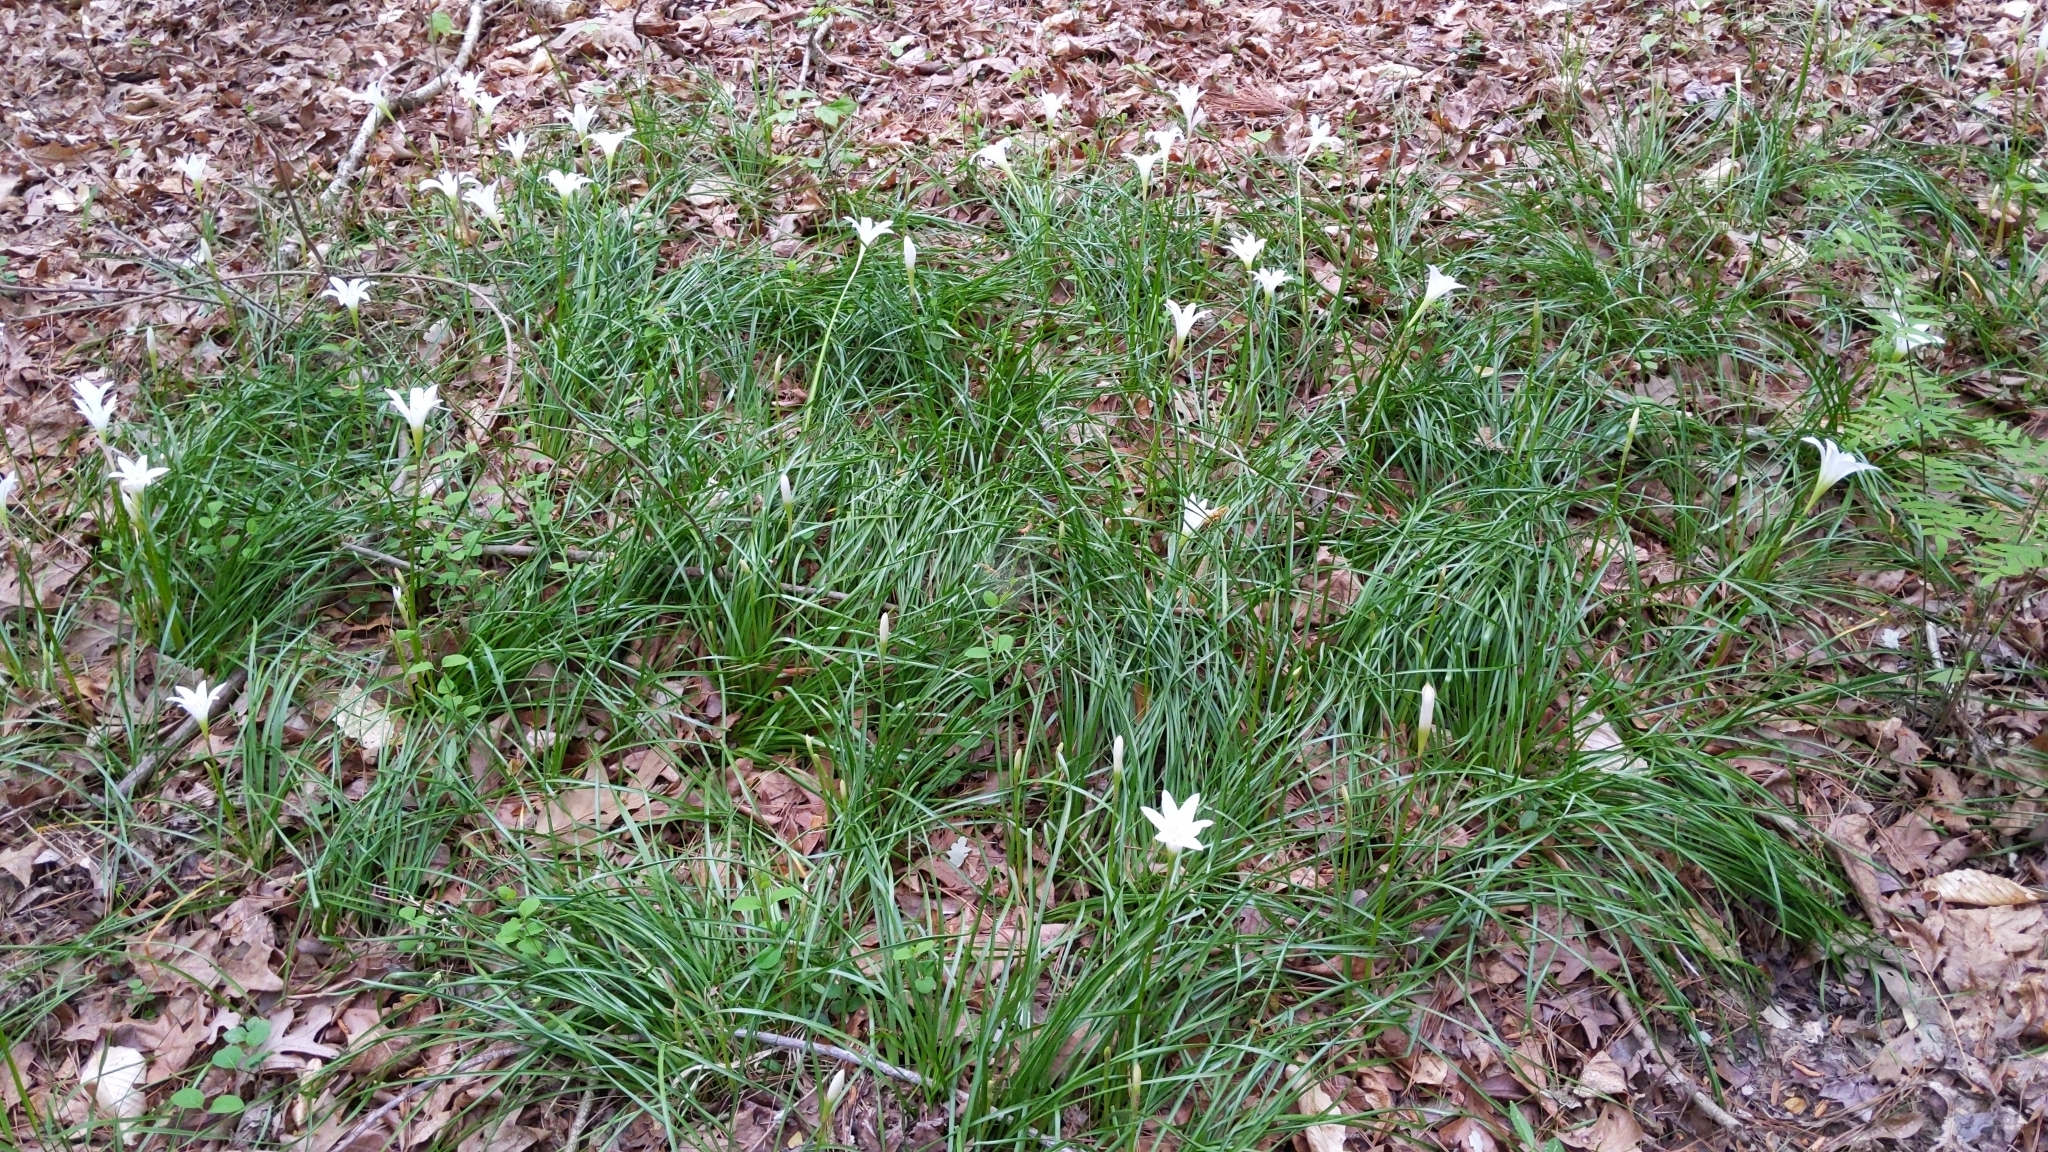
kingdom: Plantae
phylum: Tracheophyta
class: Liliopsida
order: Asparagales
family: Amaryllidaceae
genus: Zephyranthes
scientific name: Zephyranthes atamasco
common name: Atamasco lily
